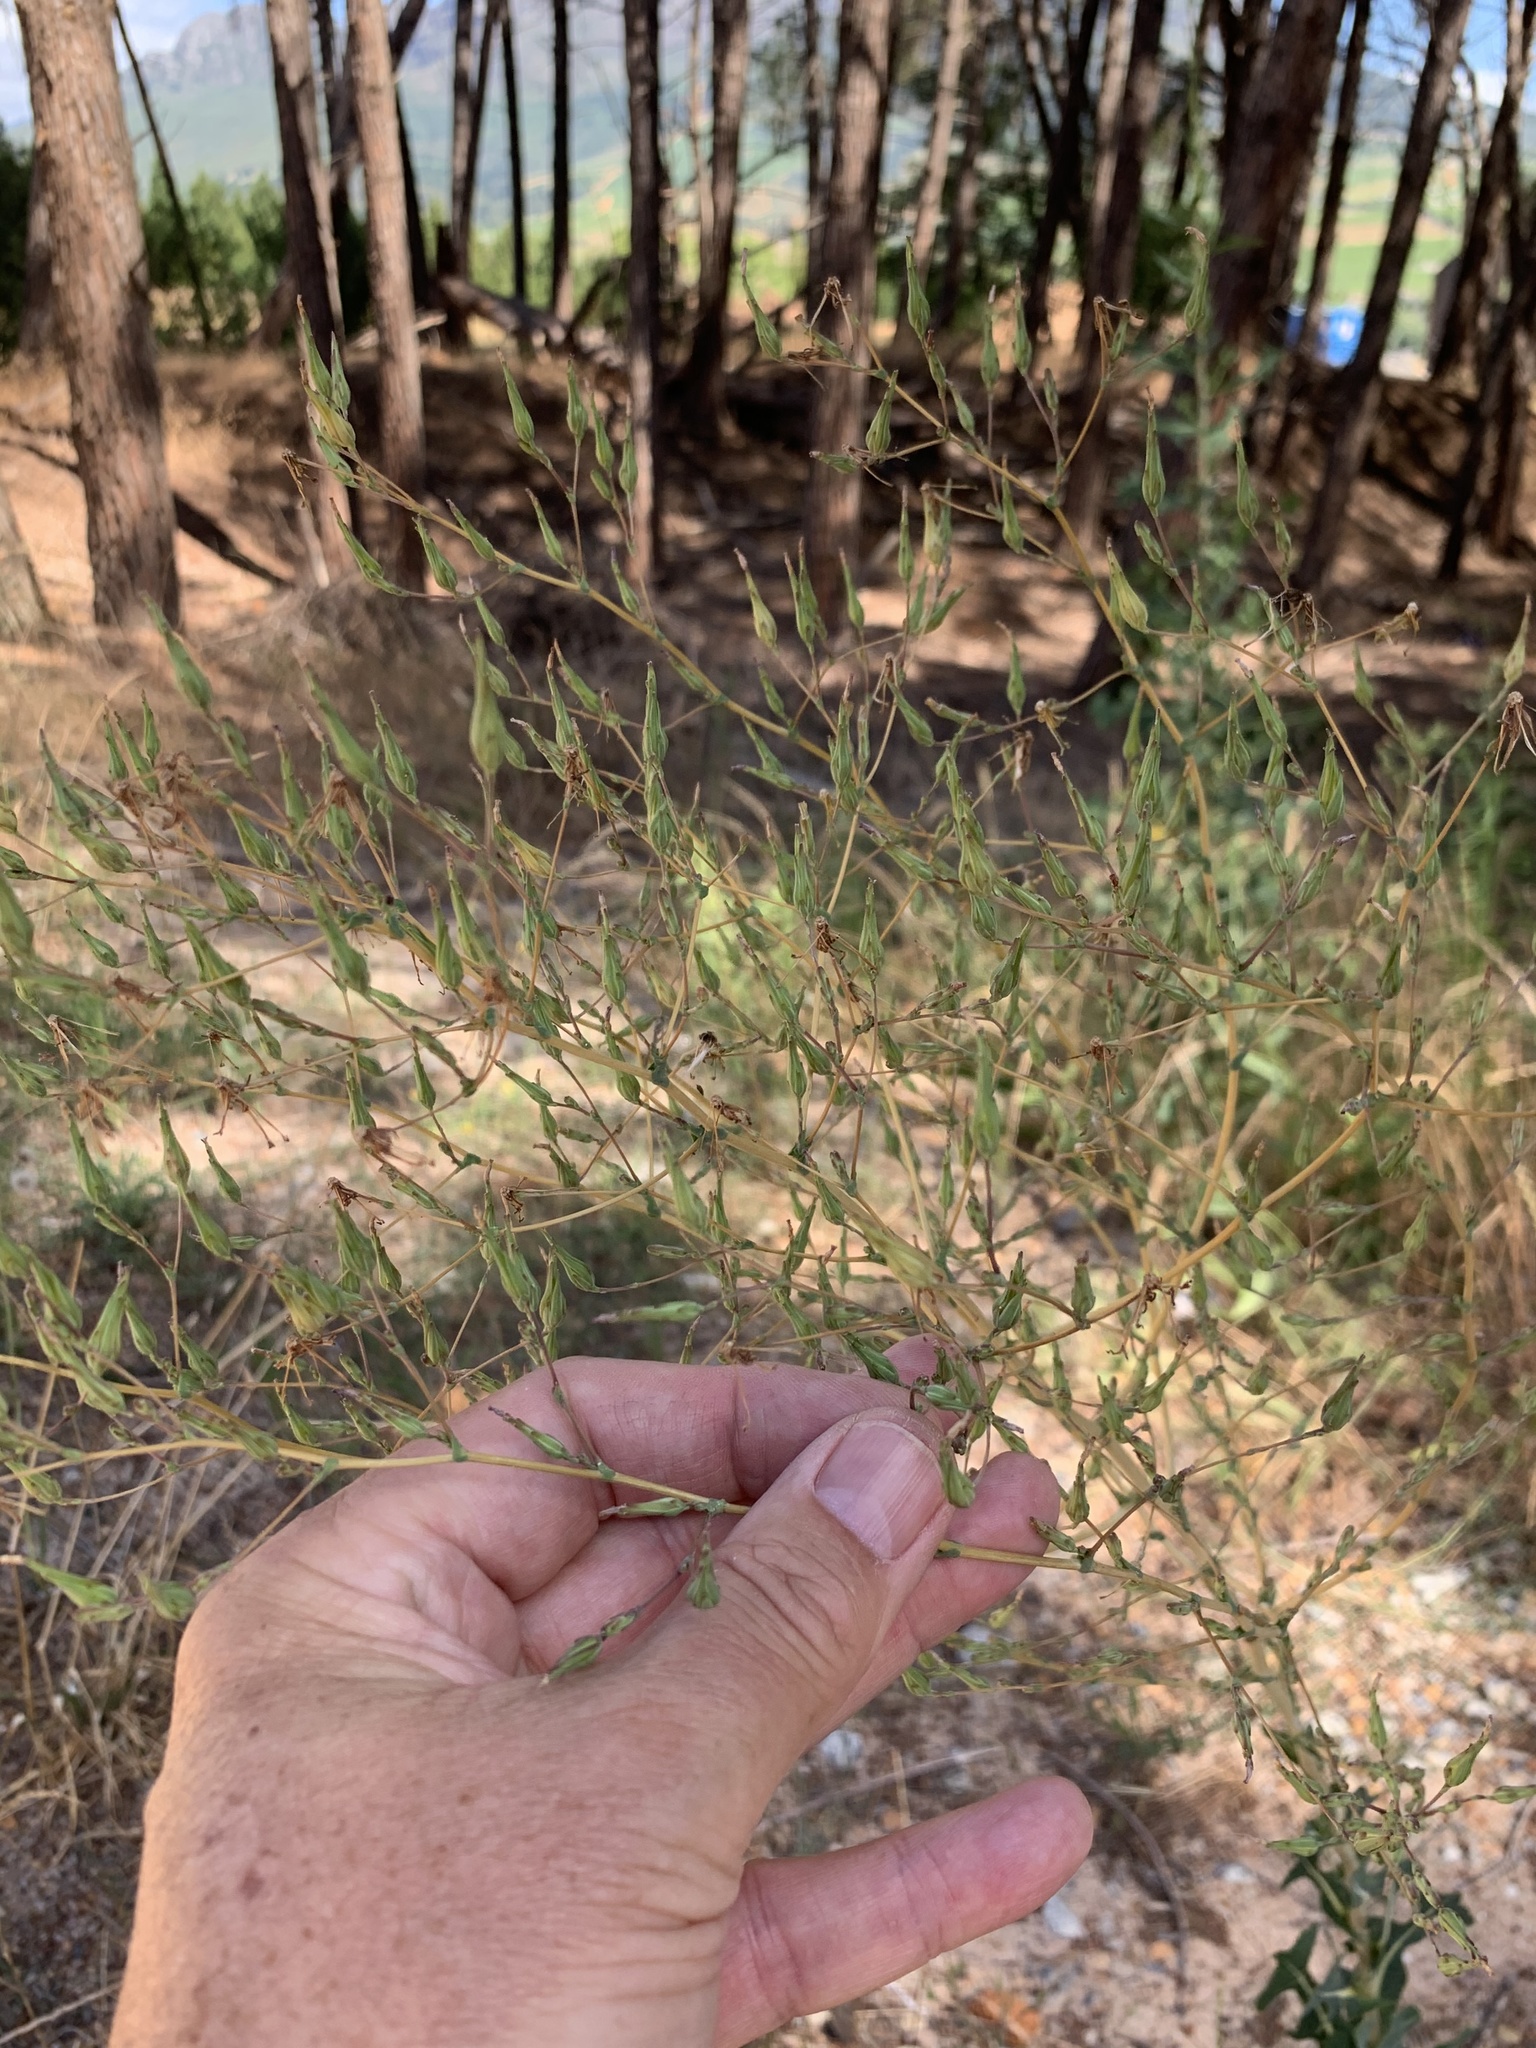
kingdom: Plantae
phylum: Tracheophyta
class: Magnoliopsida
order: Asterales
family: Asteraceae
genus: Lactuca
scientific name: Lactuca serriola
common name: Prickly lettuce
